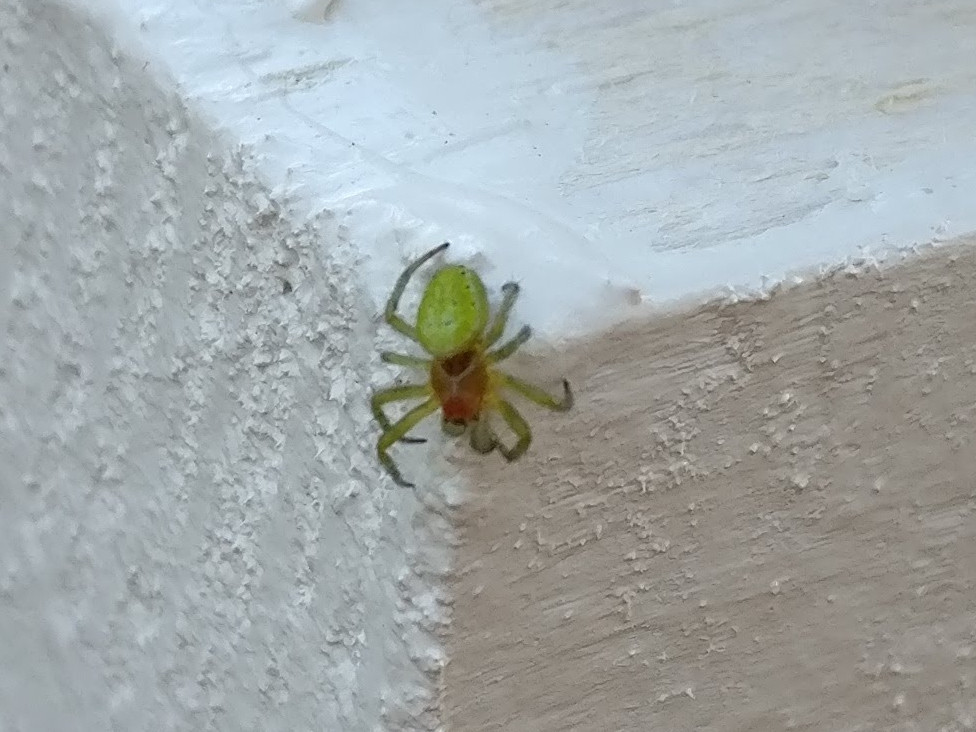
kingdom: Animalia
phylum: Arthropoda
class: Arachnida
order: Araneae
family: Araneidae
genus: Araniella
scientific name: Araniella
